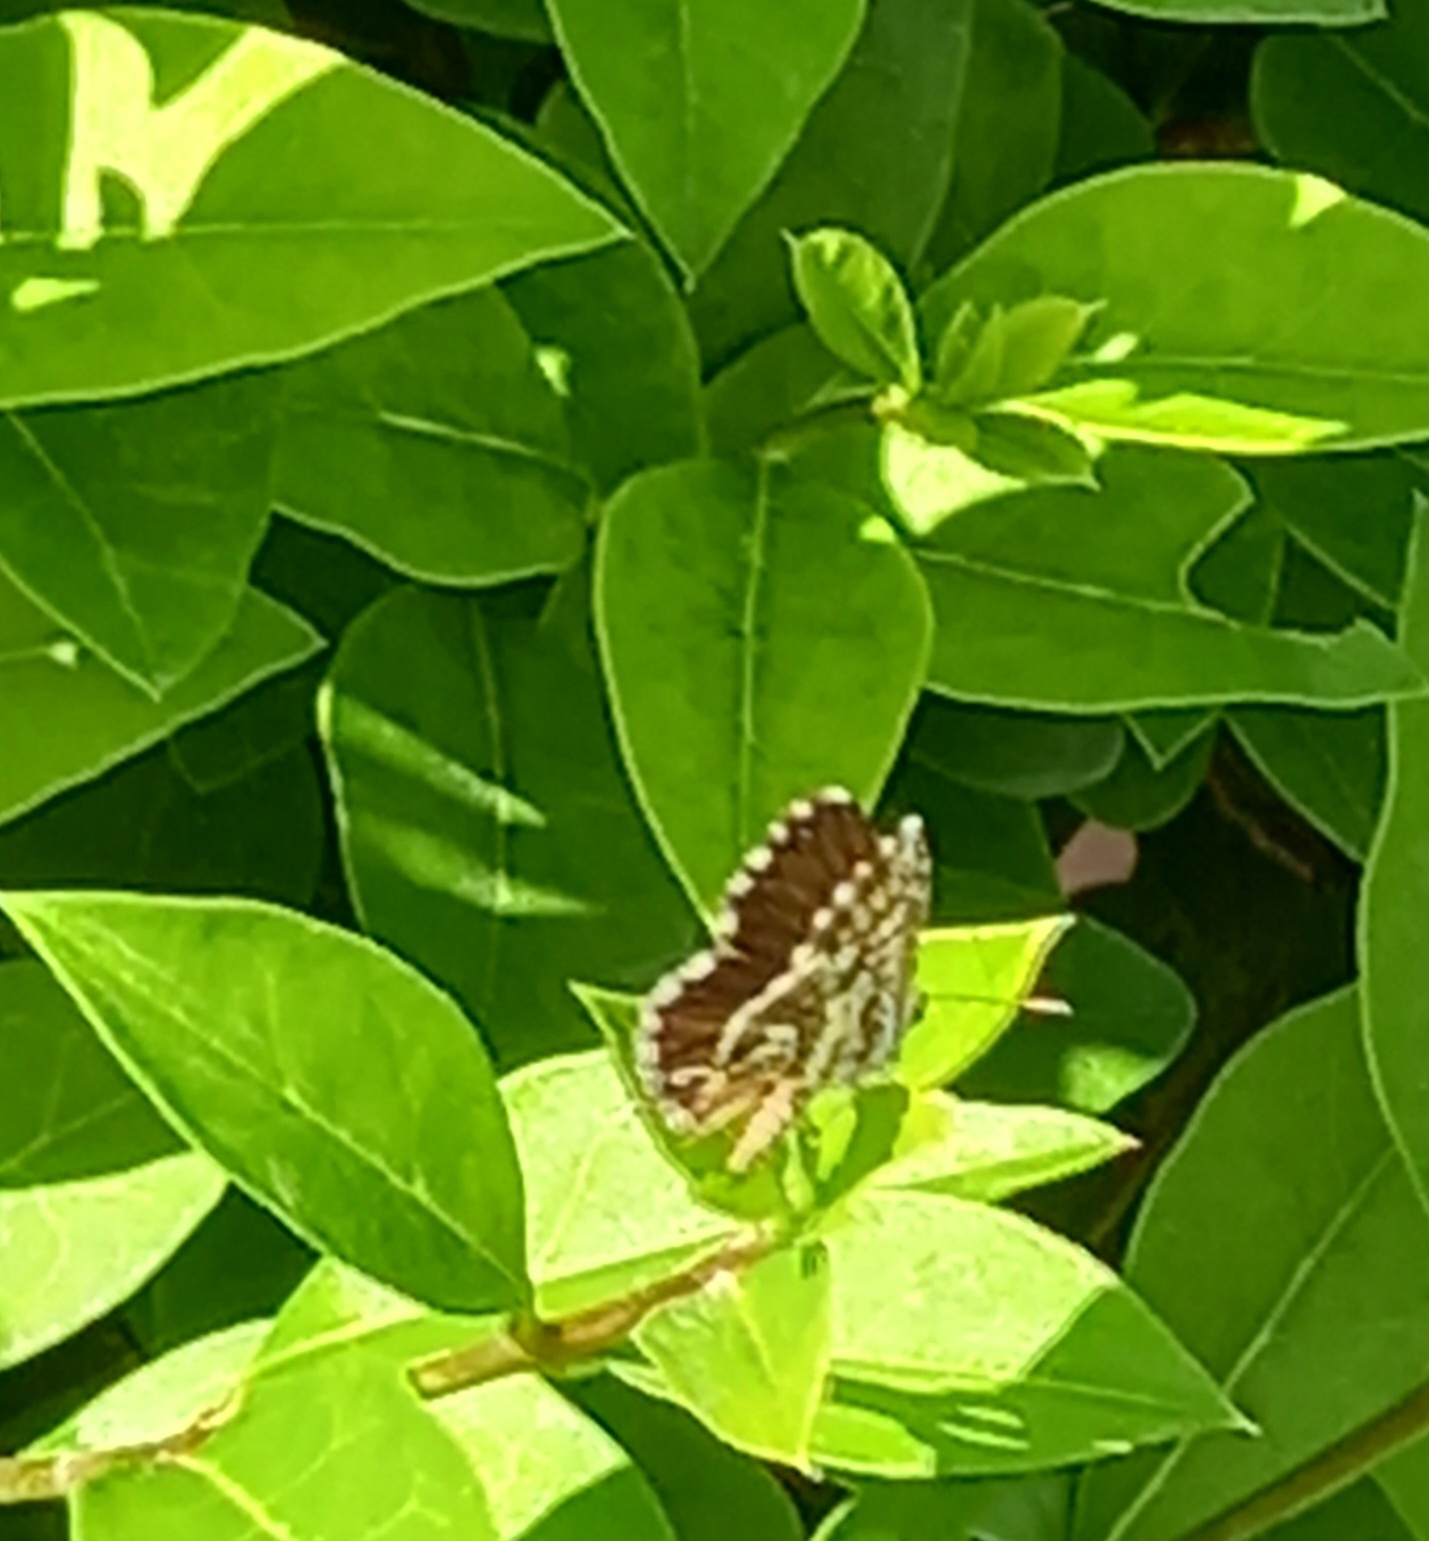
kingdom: Animalia
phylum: Arthropoda
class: Insecta
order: Lepidoptera
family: Lycaenidae
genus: Cacyreus
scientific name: Cacyreus marshalli
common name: Geranium bronze
